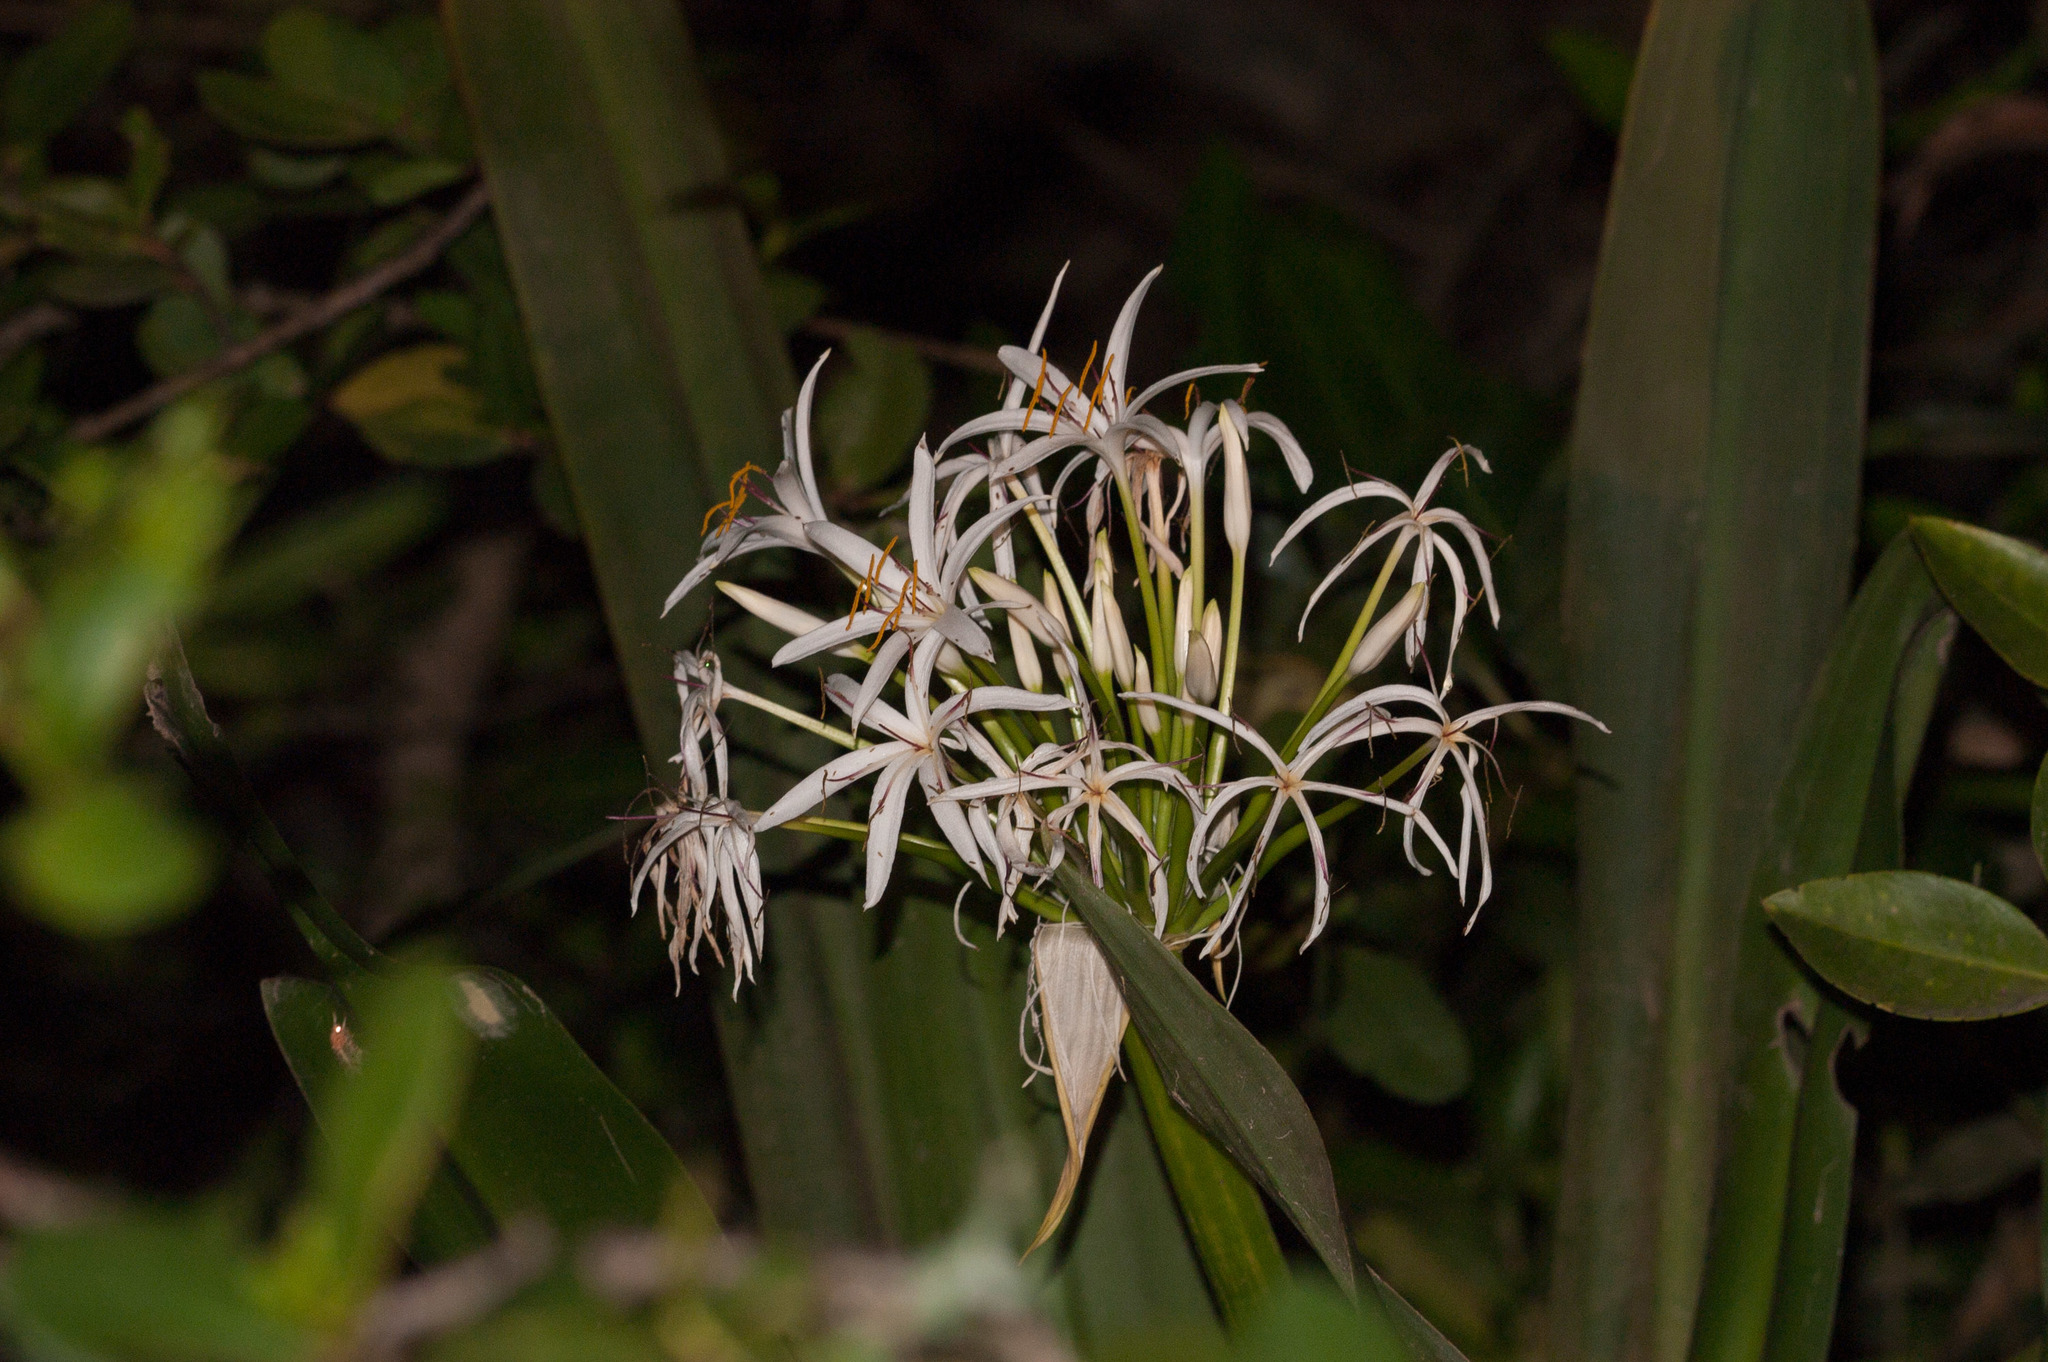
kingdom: Plantae
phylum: Tracheophyta
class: Liliopsida
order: Asparagales
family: Amaryllidaceae
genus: Crinum
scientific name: Crinum pedunculatum
